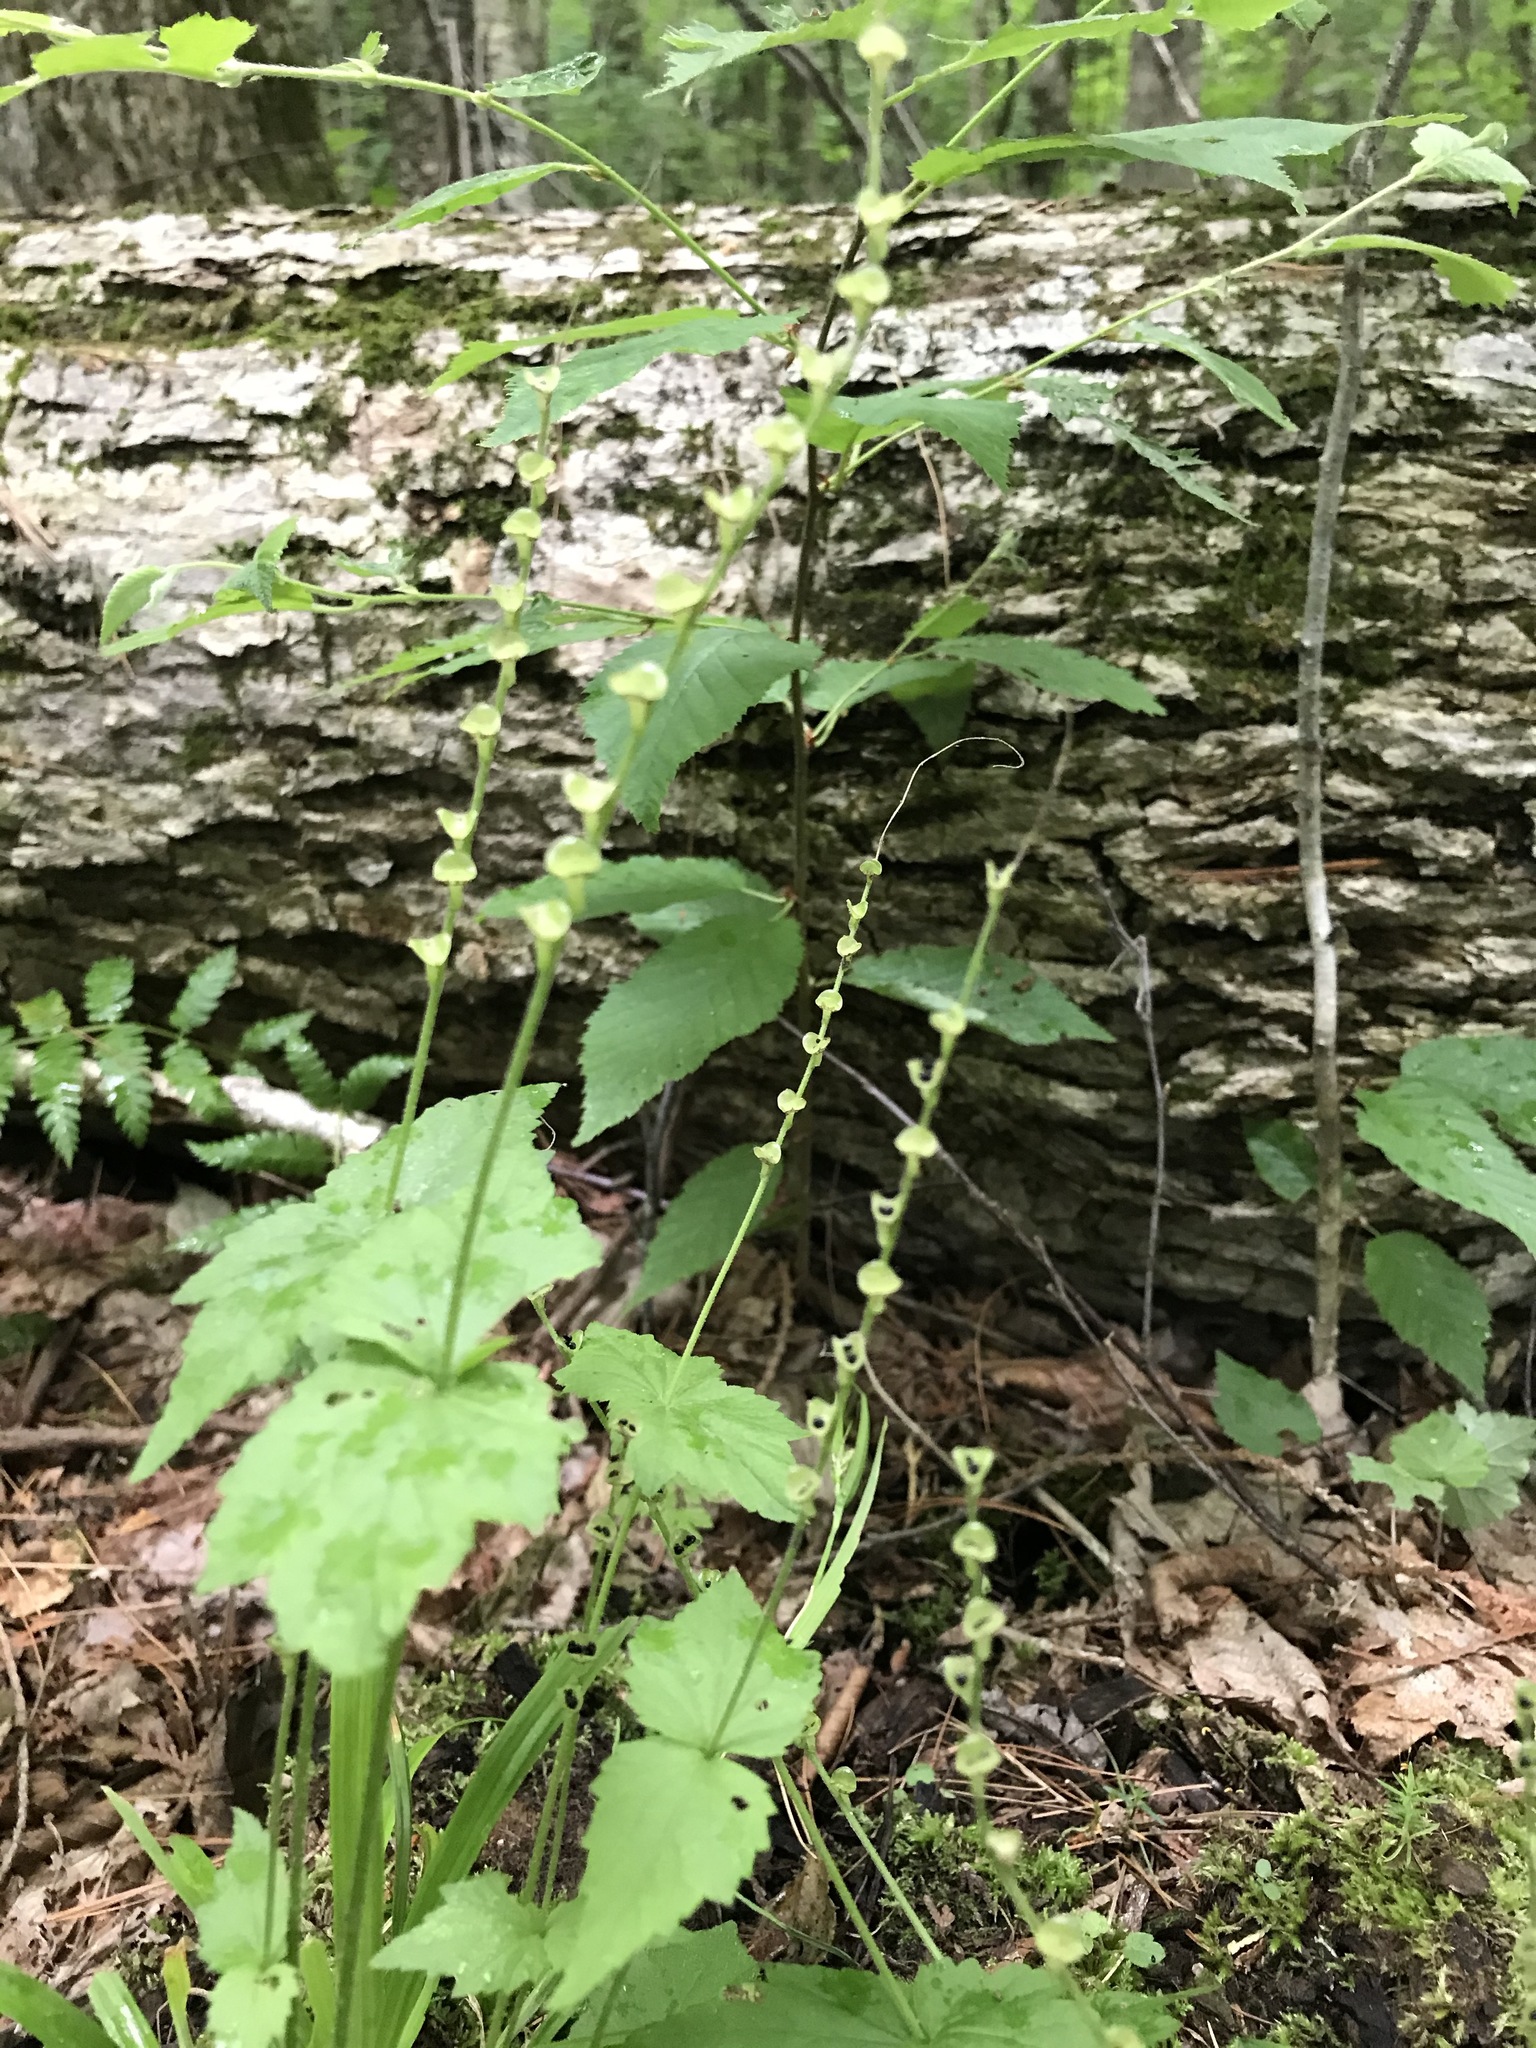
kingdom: Plantae
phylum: Tracheophyta
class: Magnoliopsida
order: Saxifragales
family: Saxifragaceae
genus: Mitella
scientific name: Mitella diphylla
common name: Coolwort
